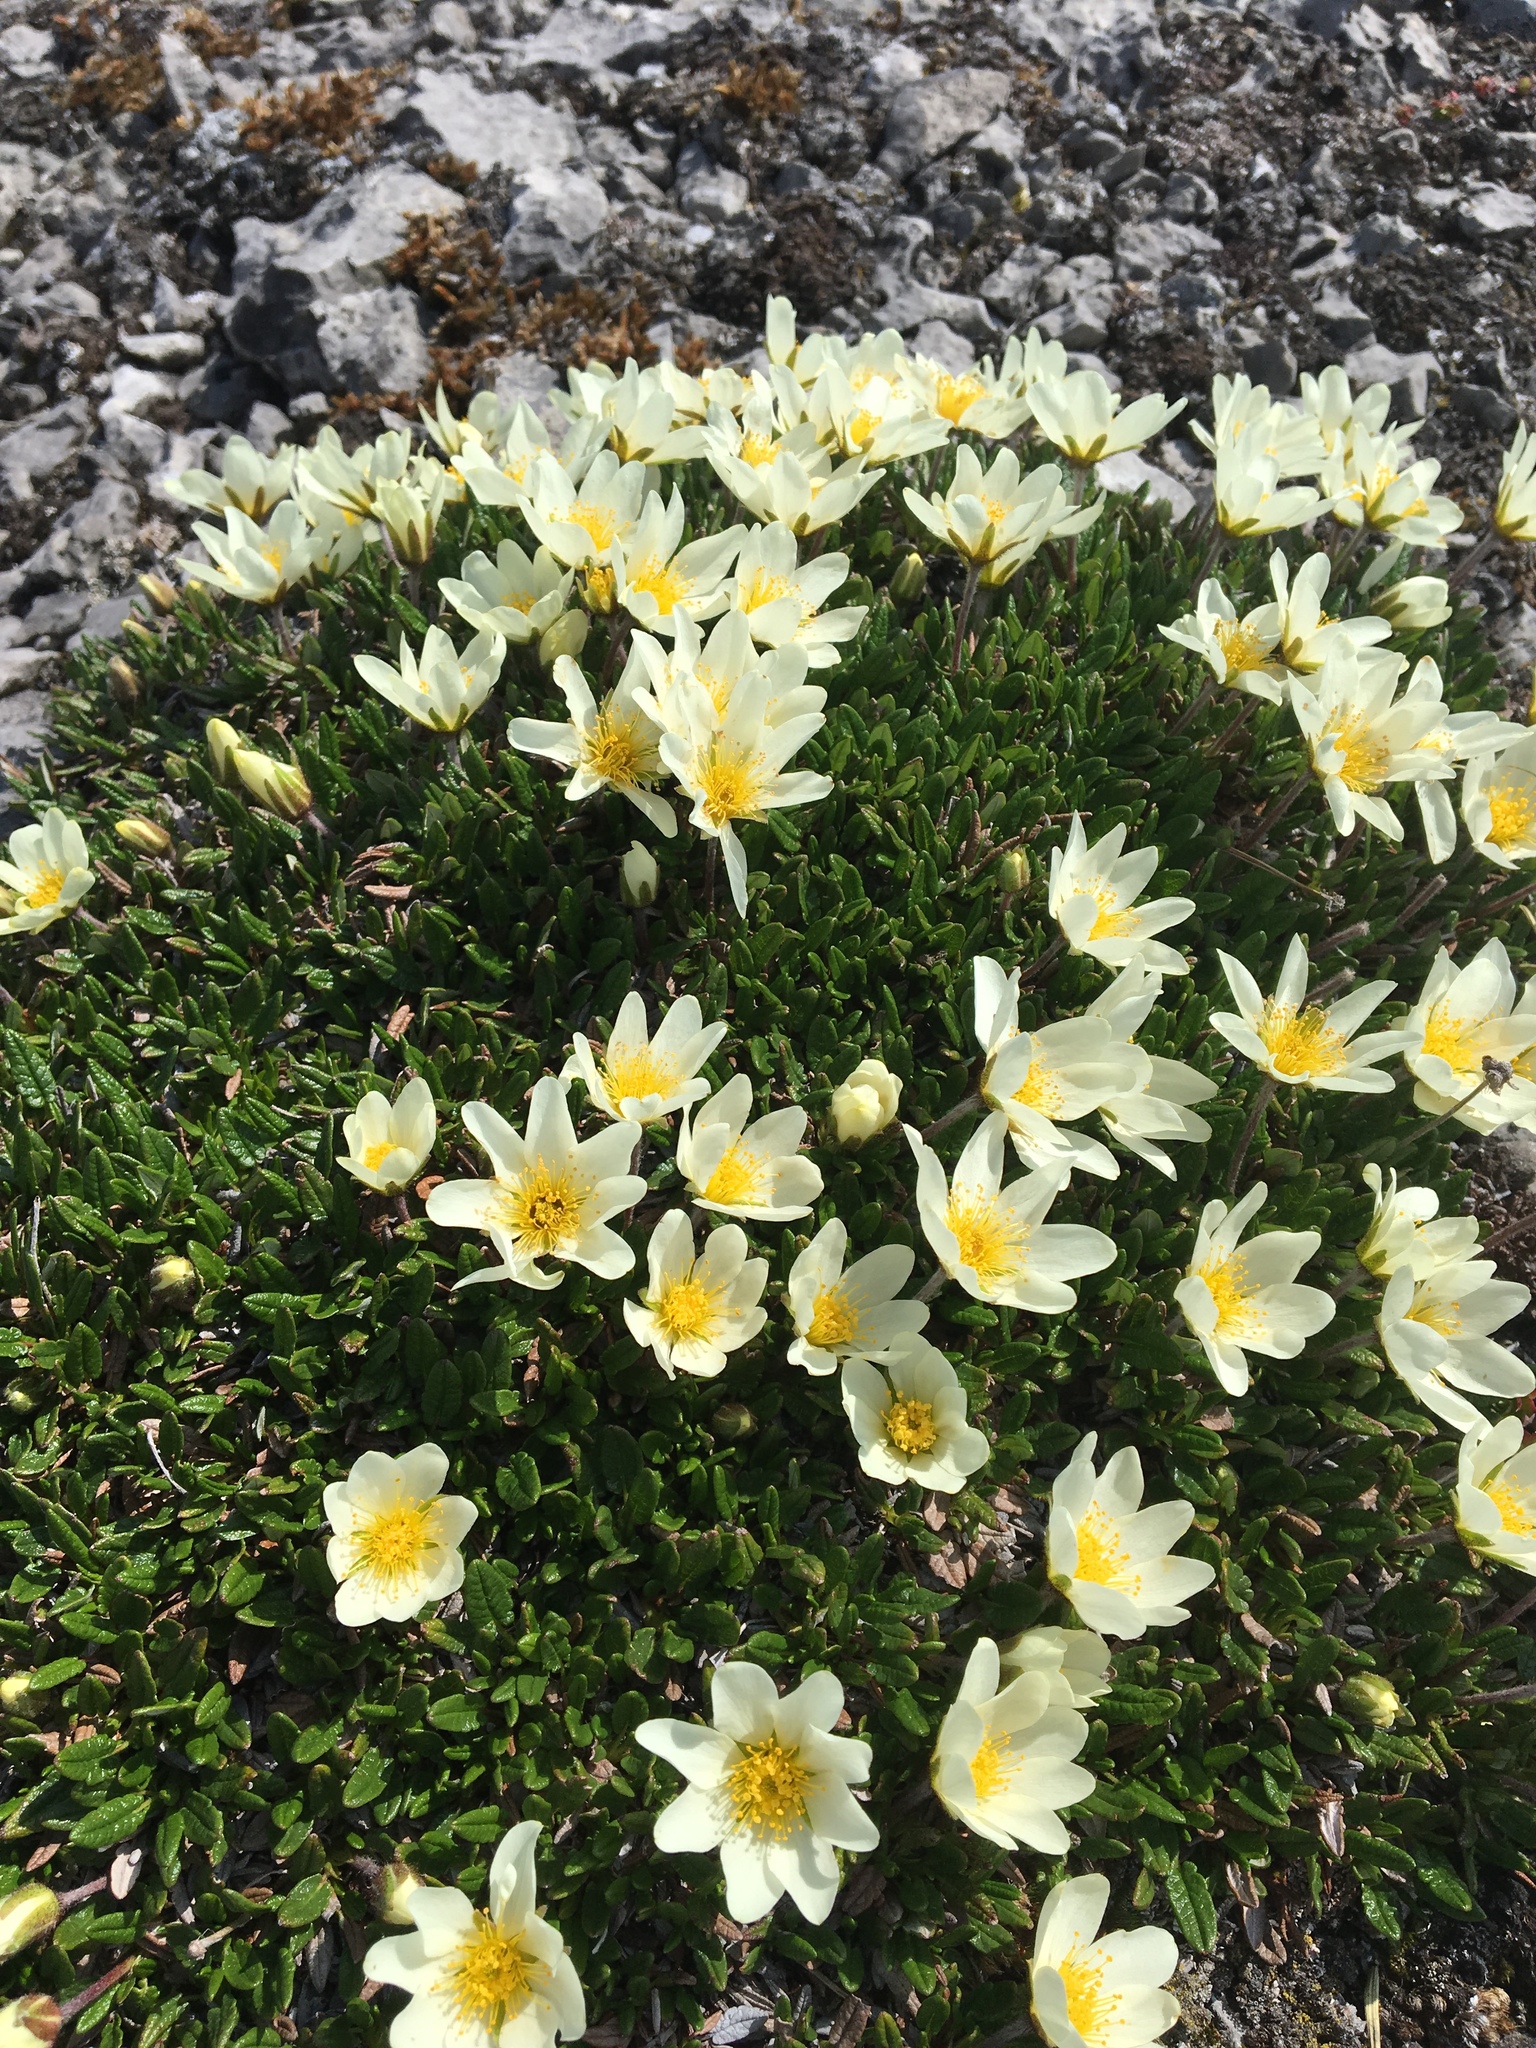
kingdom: Plantae
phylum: Tracheophyta
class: Magnoliopsida
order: Rosales
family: Rosaceae
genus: Dryas
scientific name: Dryas integrifolia
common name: Entire-leaved mountain avens
